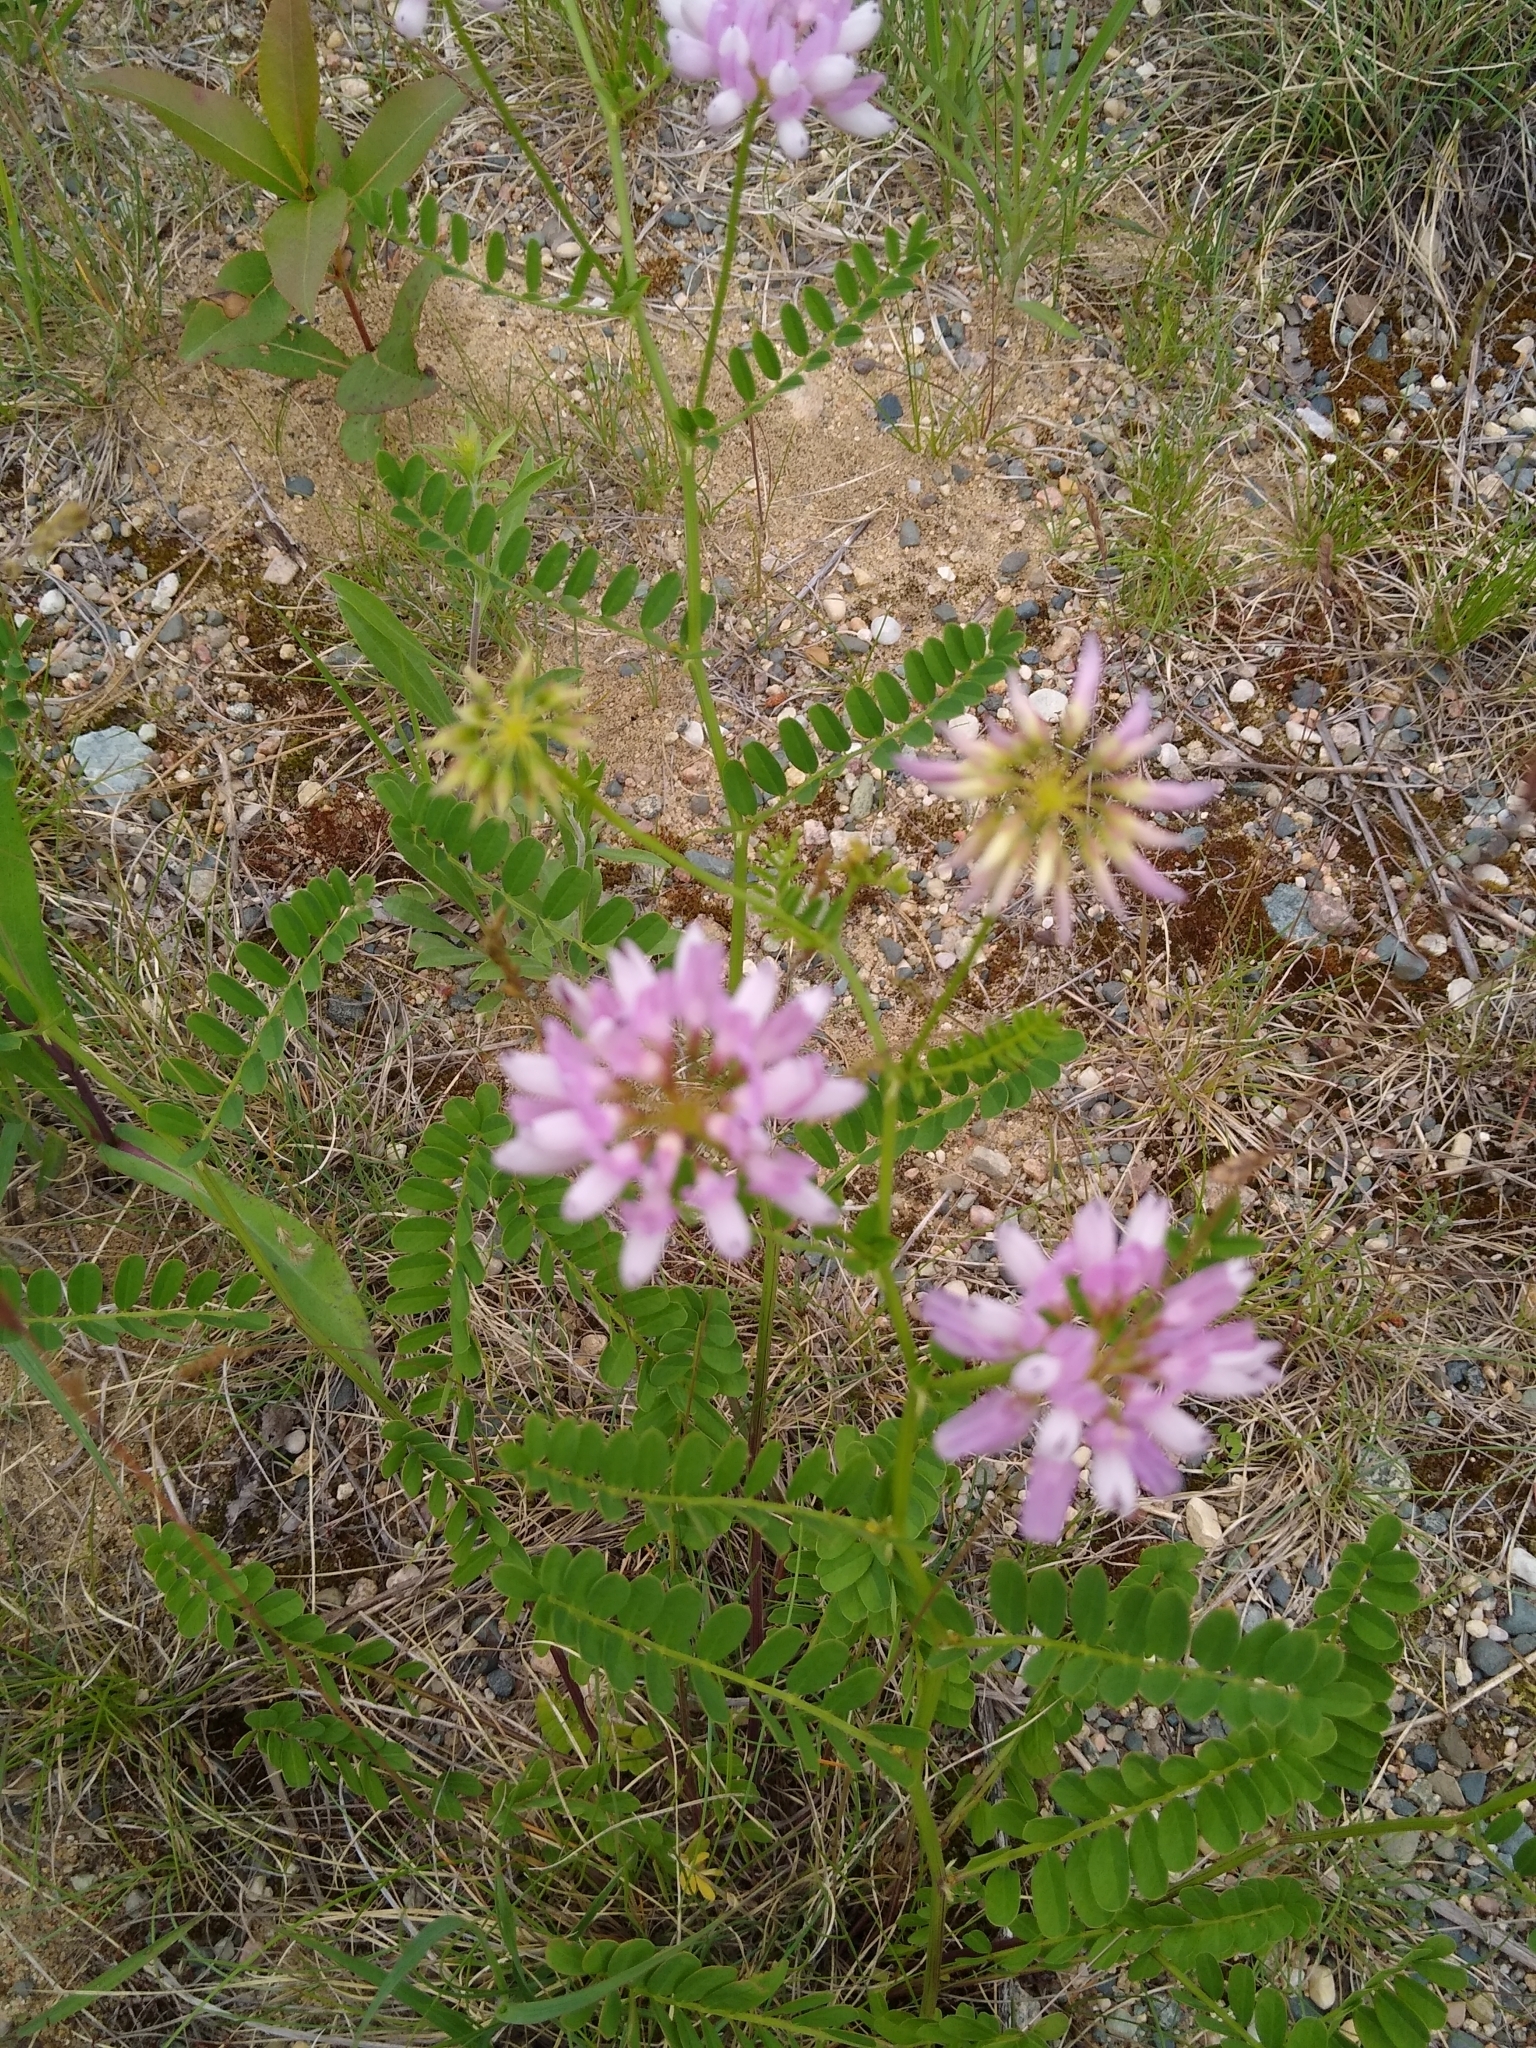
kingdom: Plantae
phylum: Tracheophyta
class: Magnoliopsida
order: Fabales
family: Fabaceae
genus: Coronilla
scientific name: Coronilla varia
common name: Crownvetch
